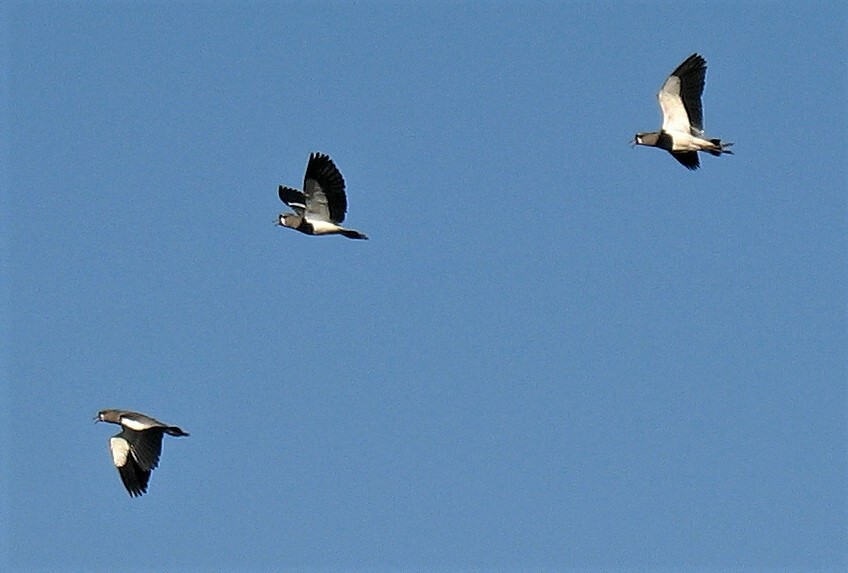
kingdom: Animalia
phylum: Chordata
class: Aves
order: Charadriiformes
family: Charadriidae
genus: Vanellus
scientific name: Vanellus chilensis
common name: Southern lapwing
